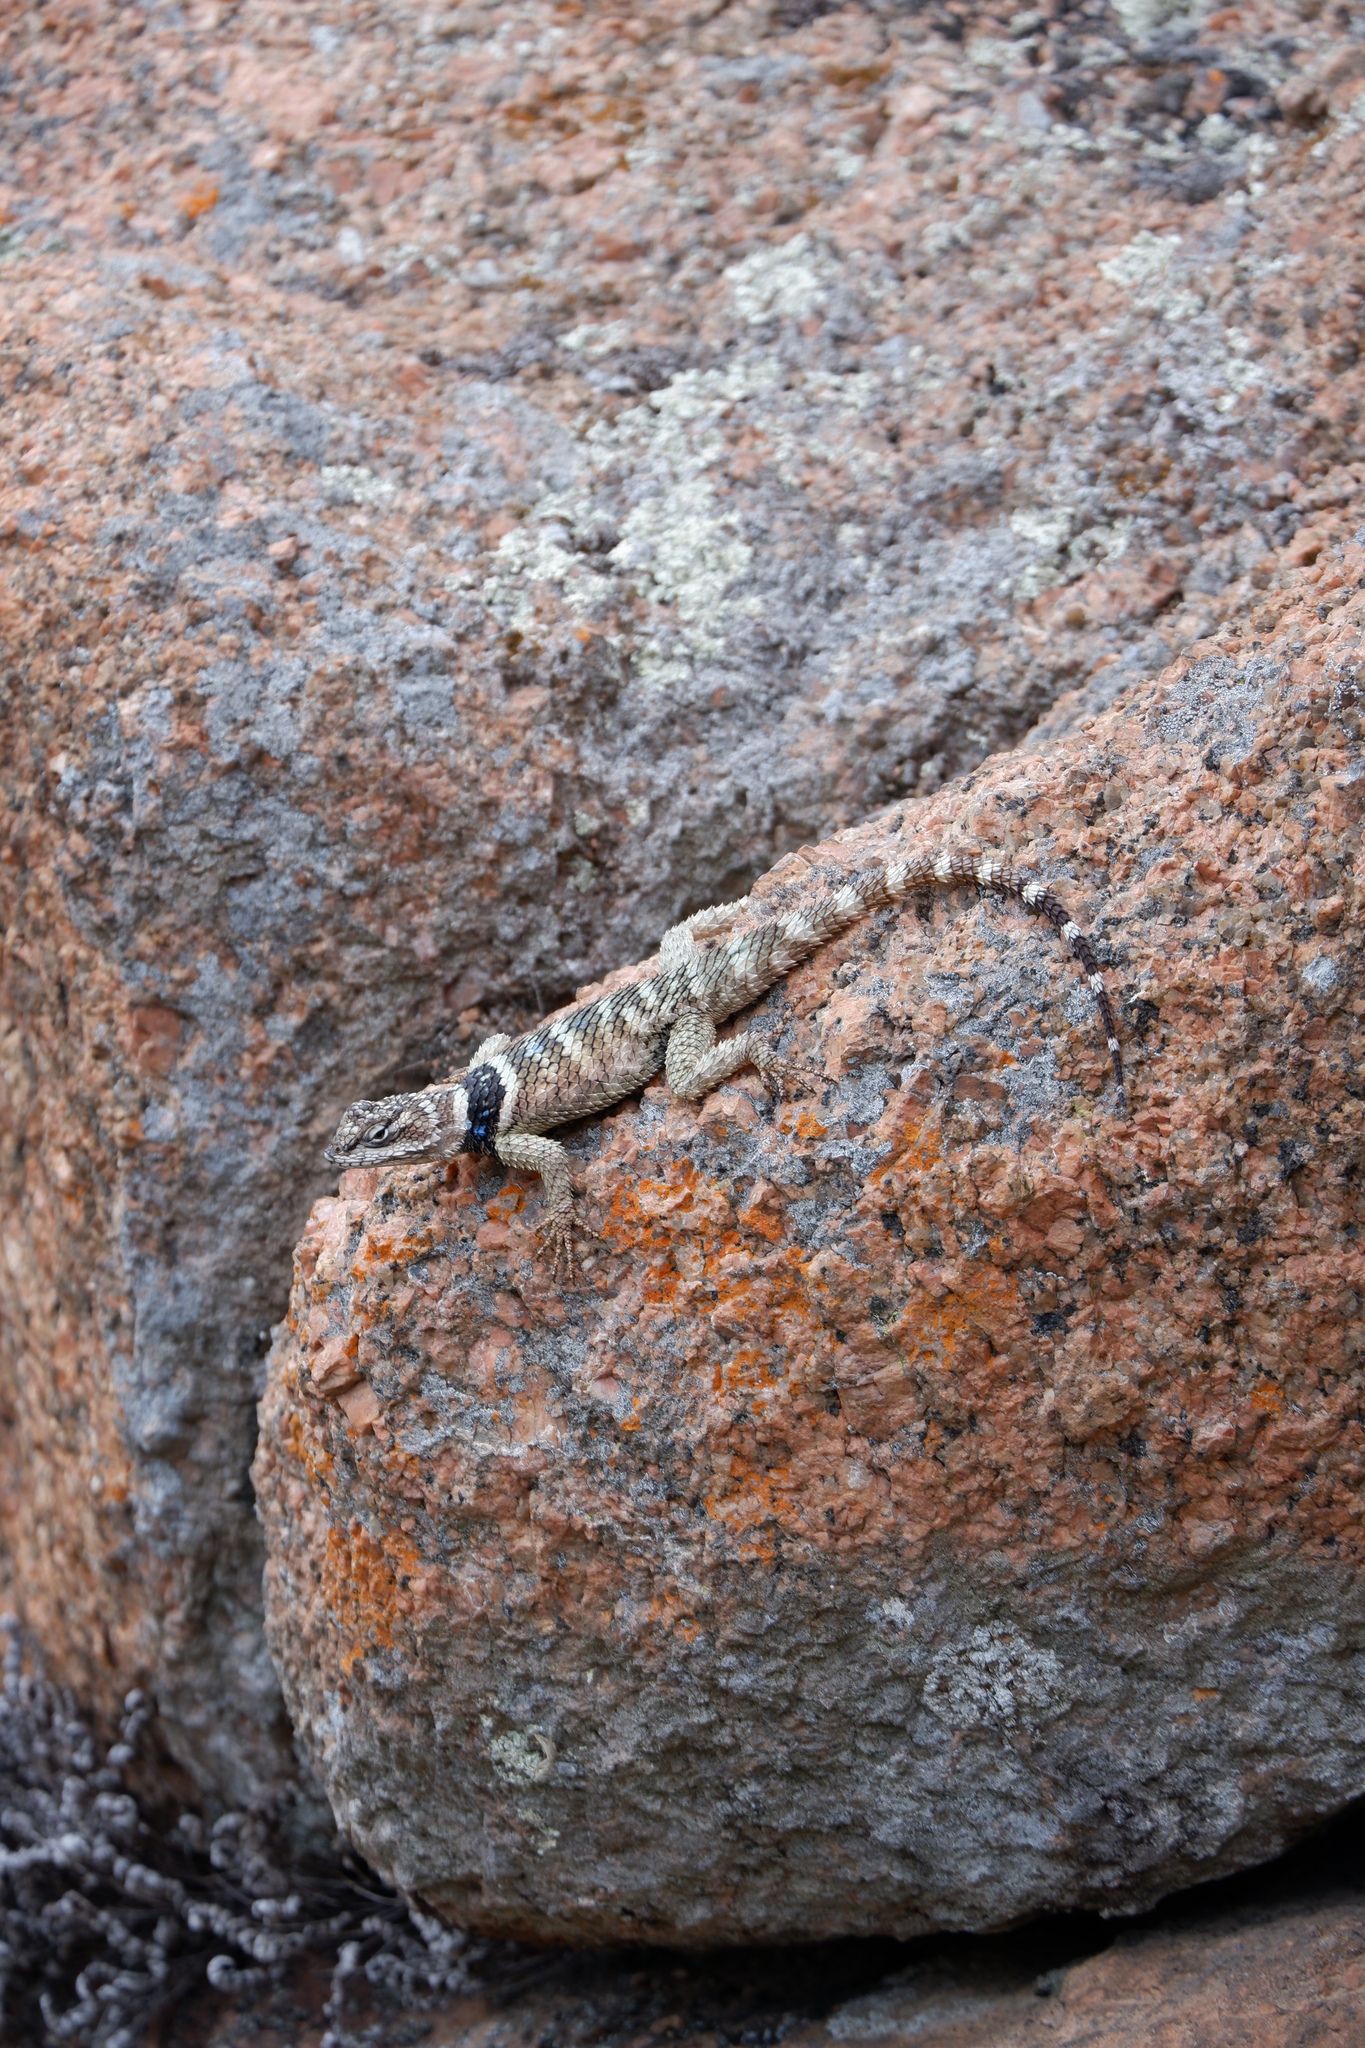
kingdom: Animalia
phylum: Chordata
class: Squamata
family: Phrynosomatidae
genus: Sceloporus
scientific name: Sceloporus poinsettii
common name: Crevice spiny lizard
